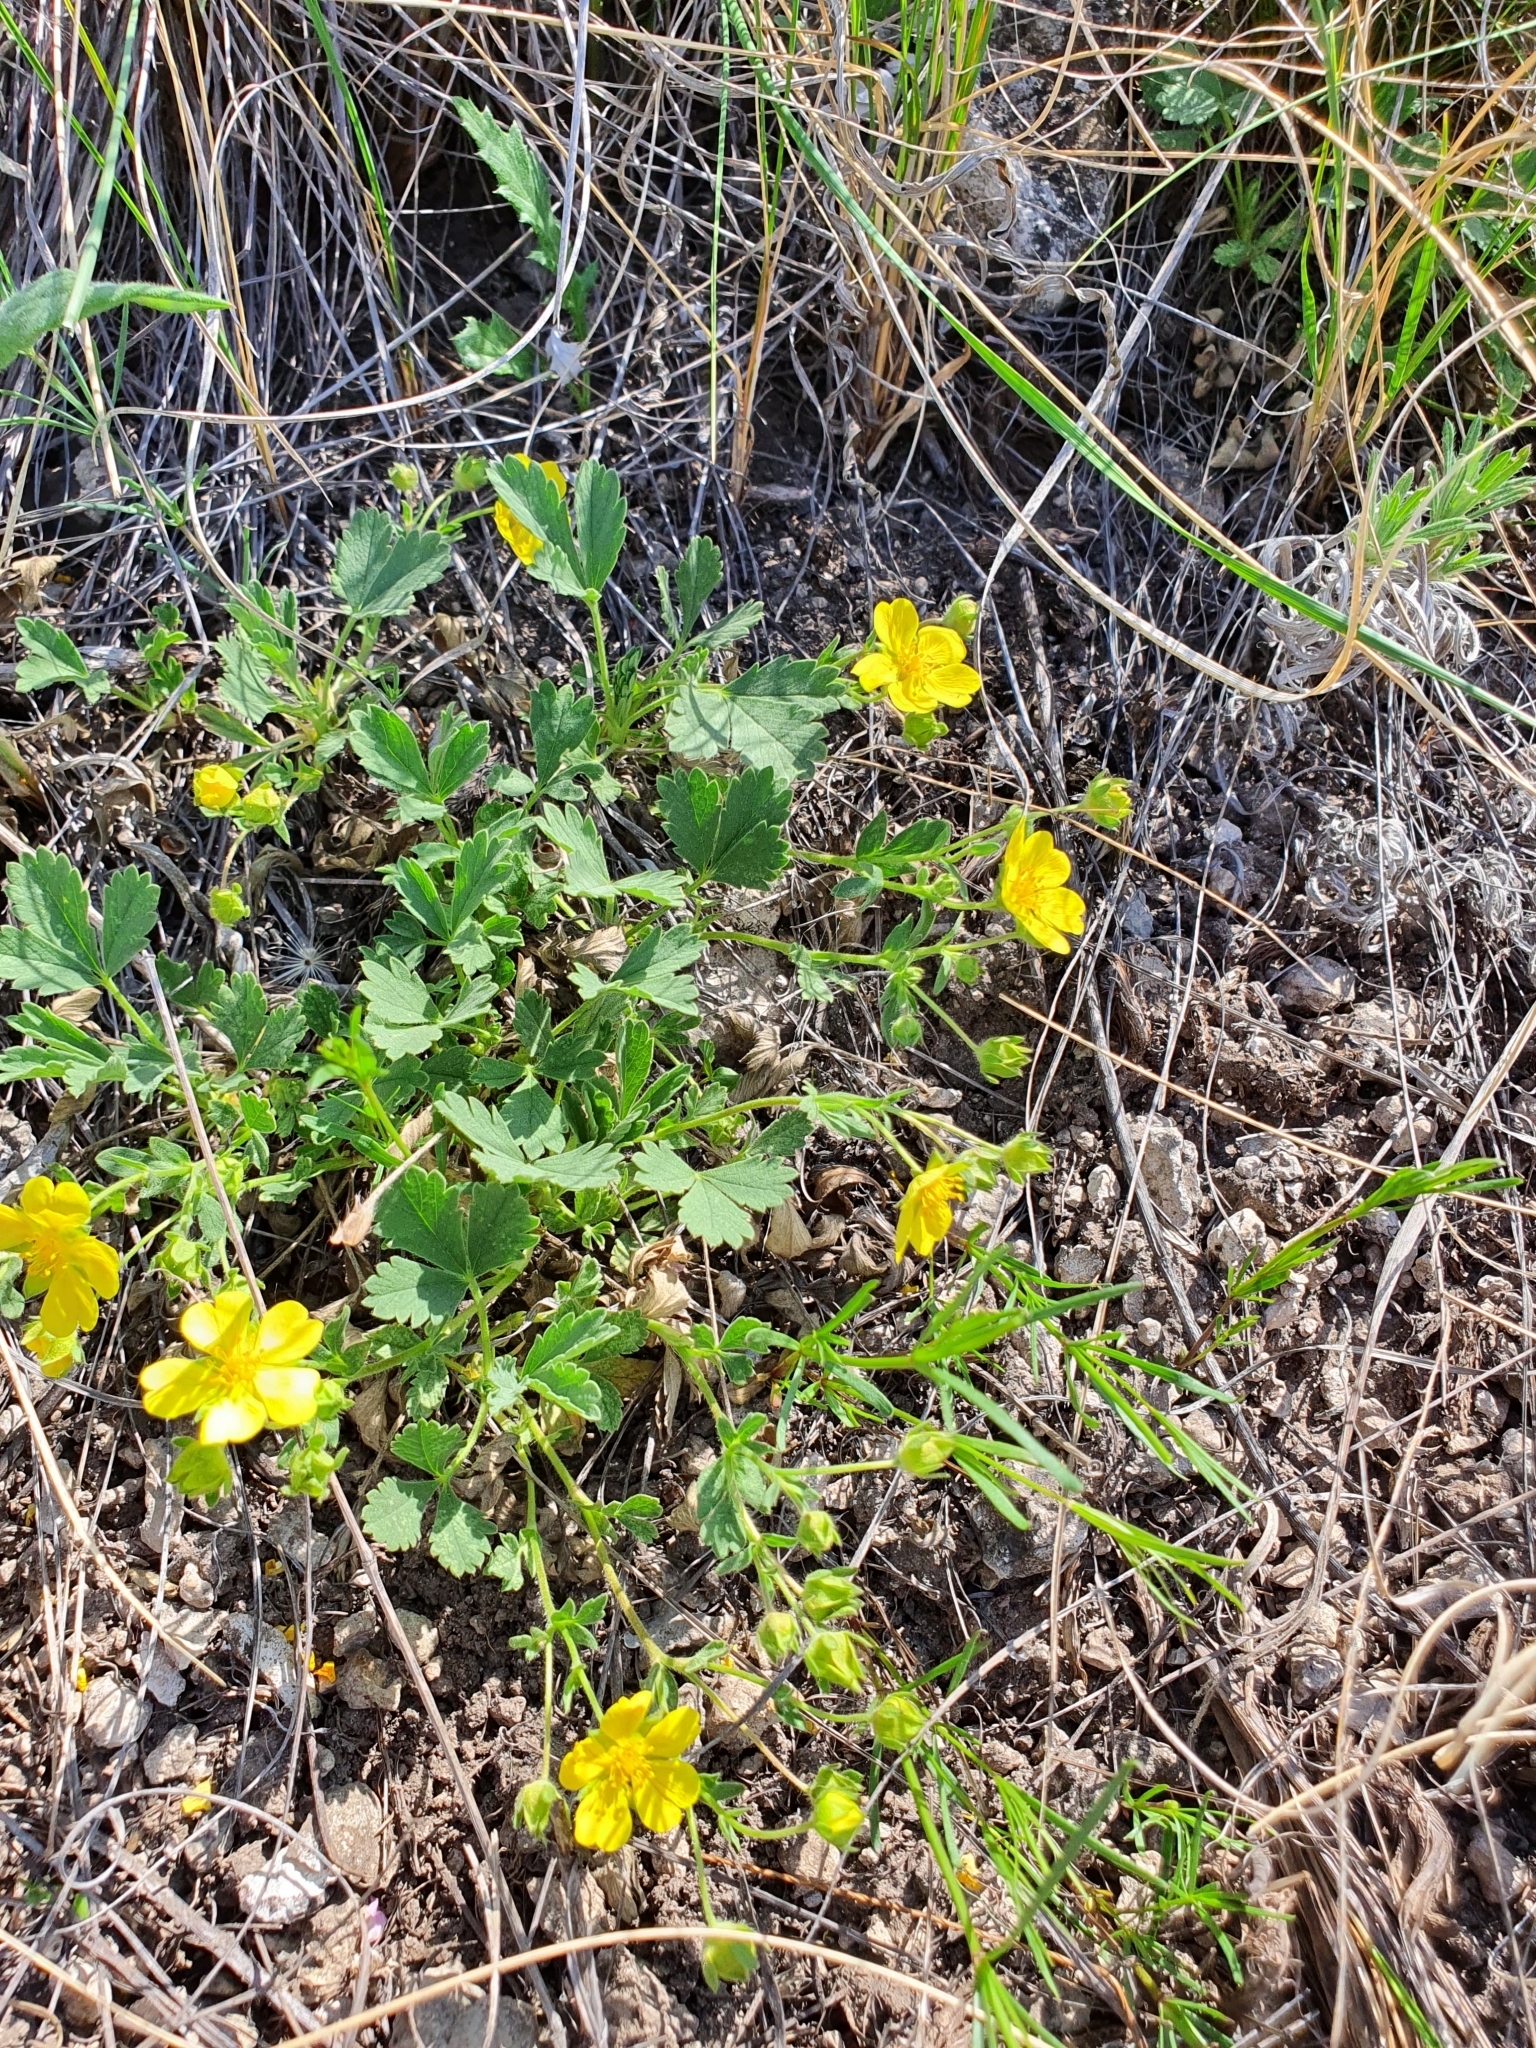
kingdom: Plantae
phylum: Tracheophyta
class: Magnoliopsida
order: Rosales
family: Rosaceae
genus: Potentilla
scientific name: Potentilla incana
